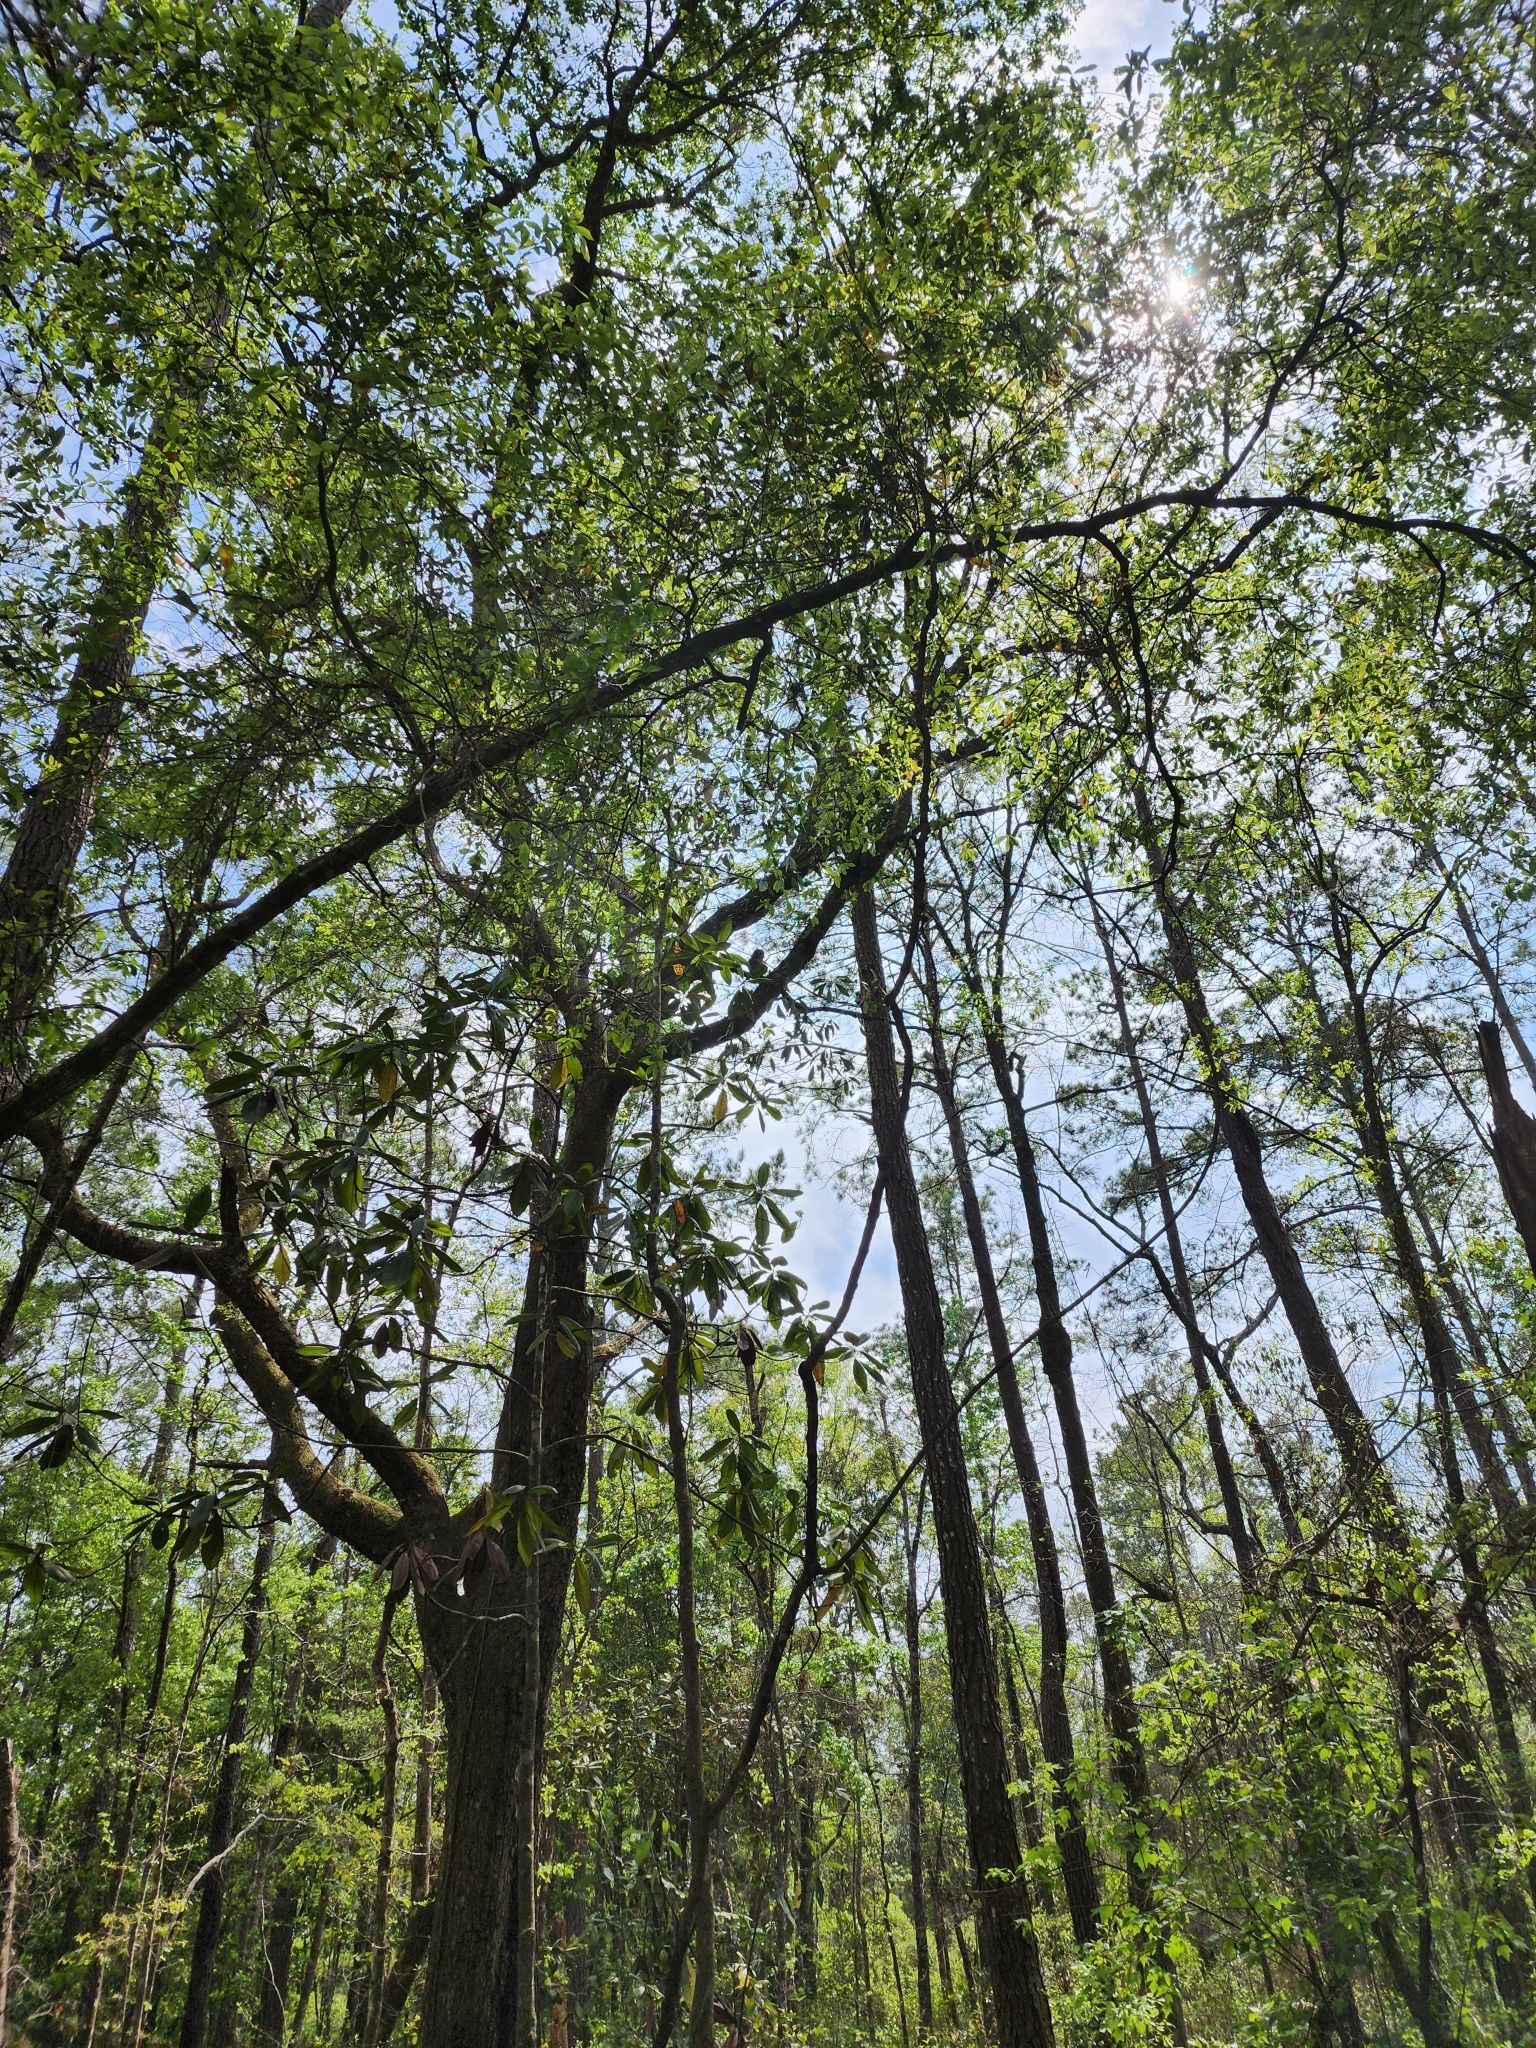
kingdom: Animalia
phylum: Chordata
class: Aves
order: Strigiformes
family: Strigidae
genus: Strix
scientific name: Strix varia
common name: Barred owl
